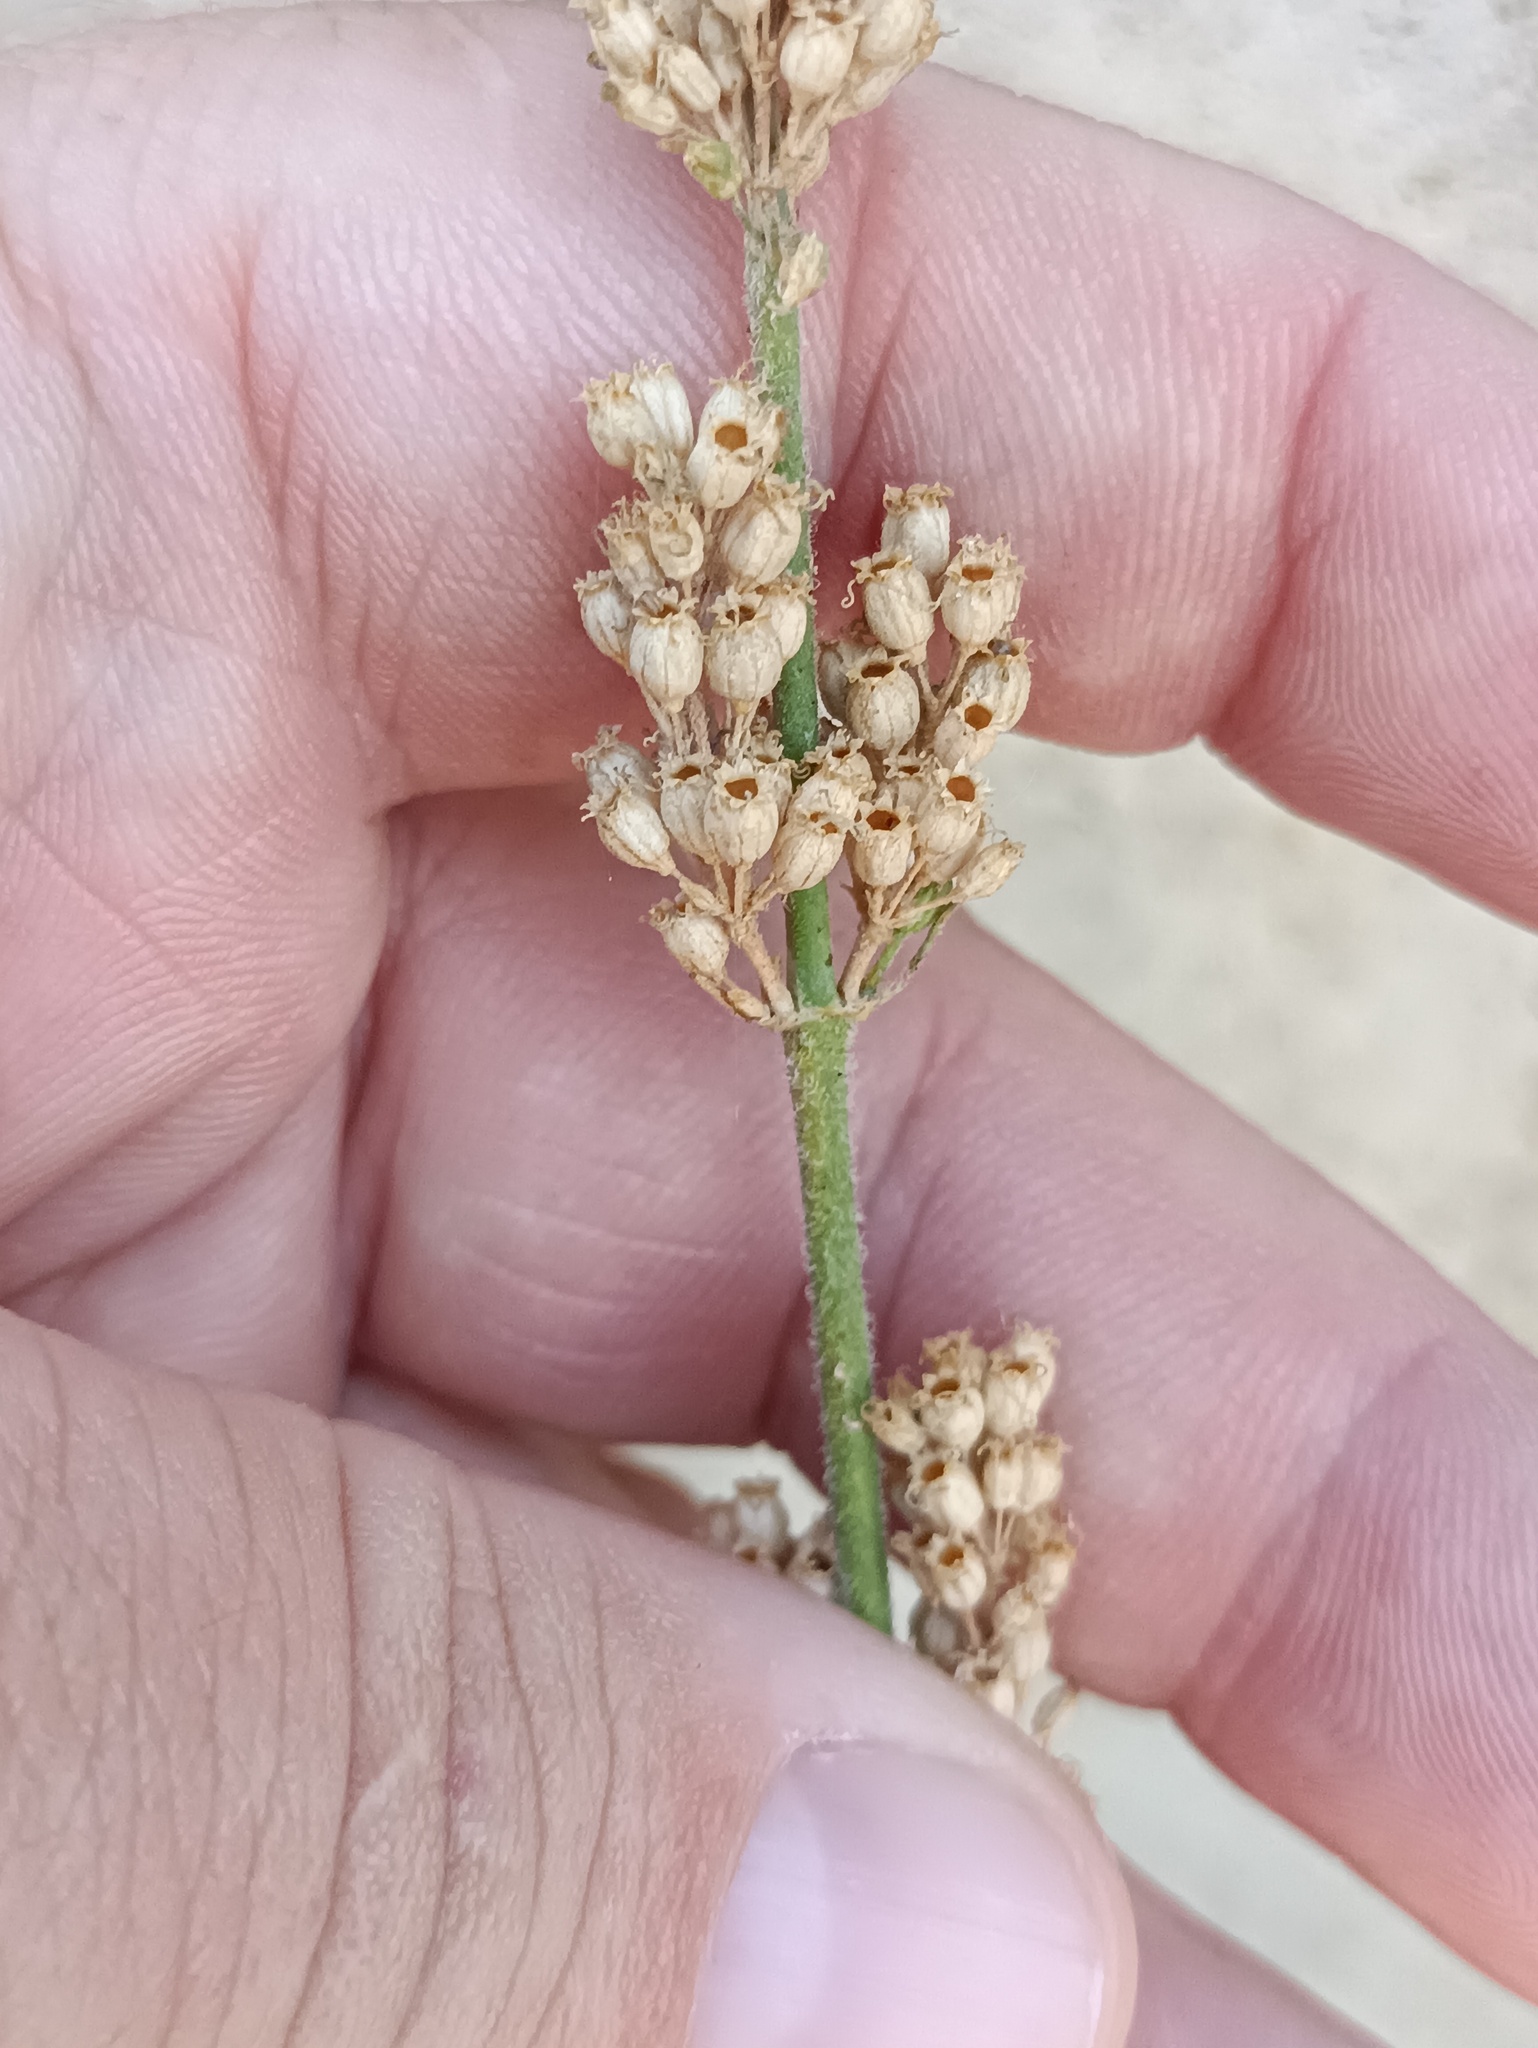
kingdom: Plantae
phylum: Tracheophyta
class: Magnoliopsida
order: Caryophyllales
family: Caryophyllaceae
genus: Silene
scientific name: Silene borysthenica
